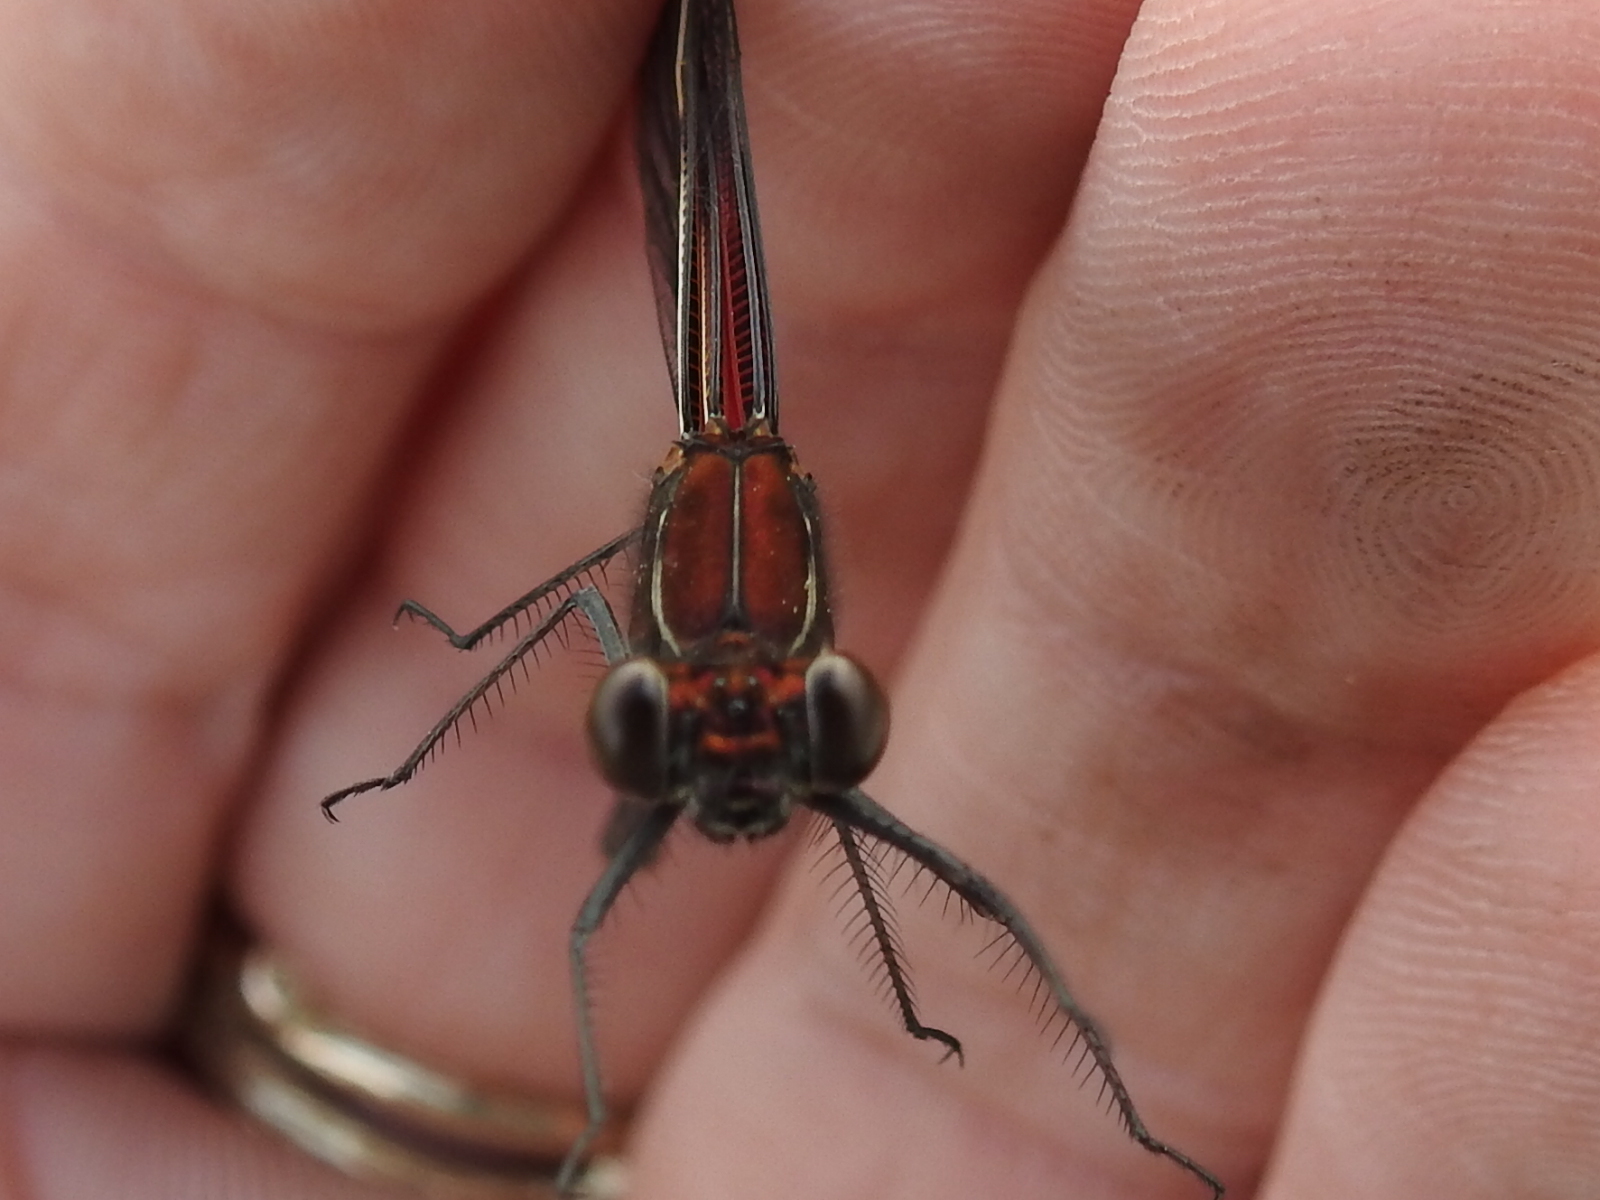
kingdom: Animalia
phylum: Arthropoda
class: Insecta
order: Odonata
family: Calopterygidae
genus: Hetaerina
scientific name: Hetaerina americana
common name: American rubyspot
